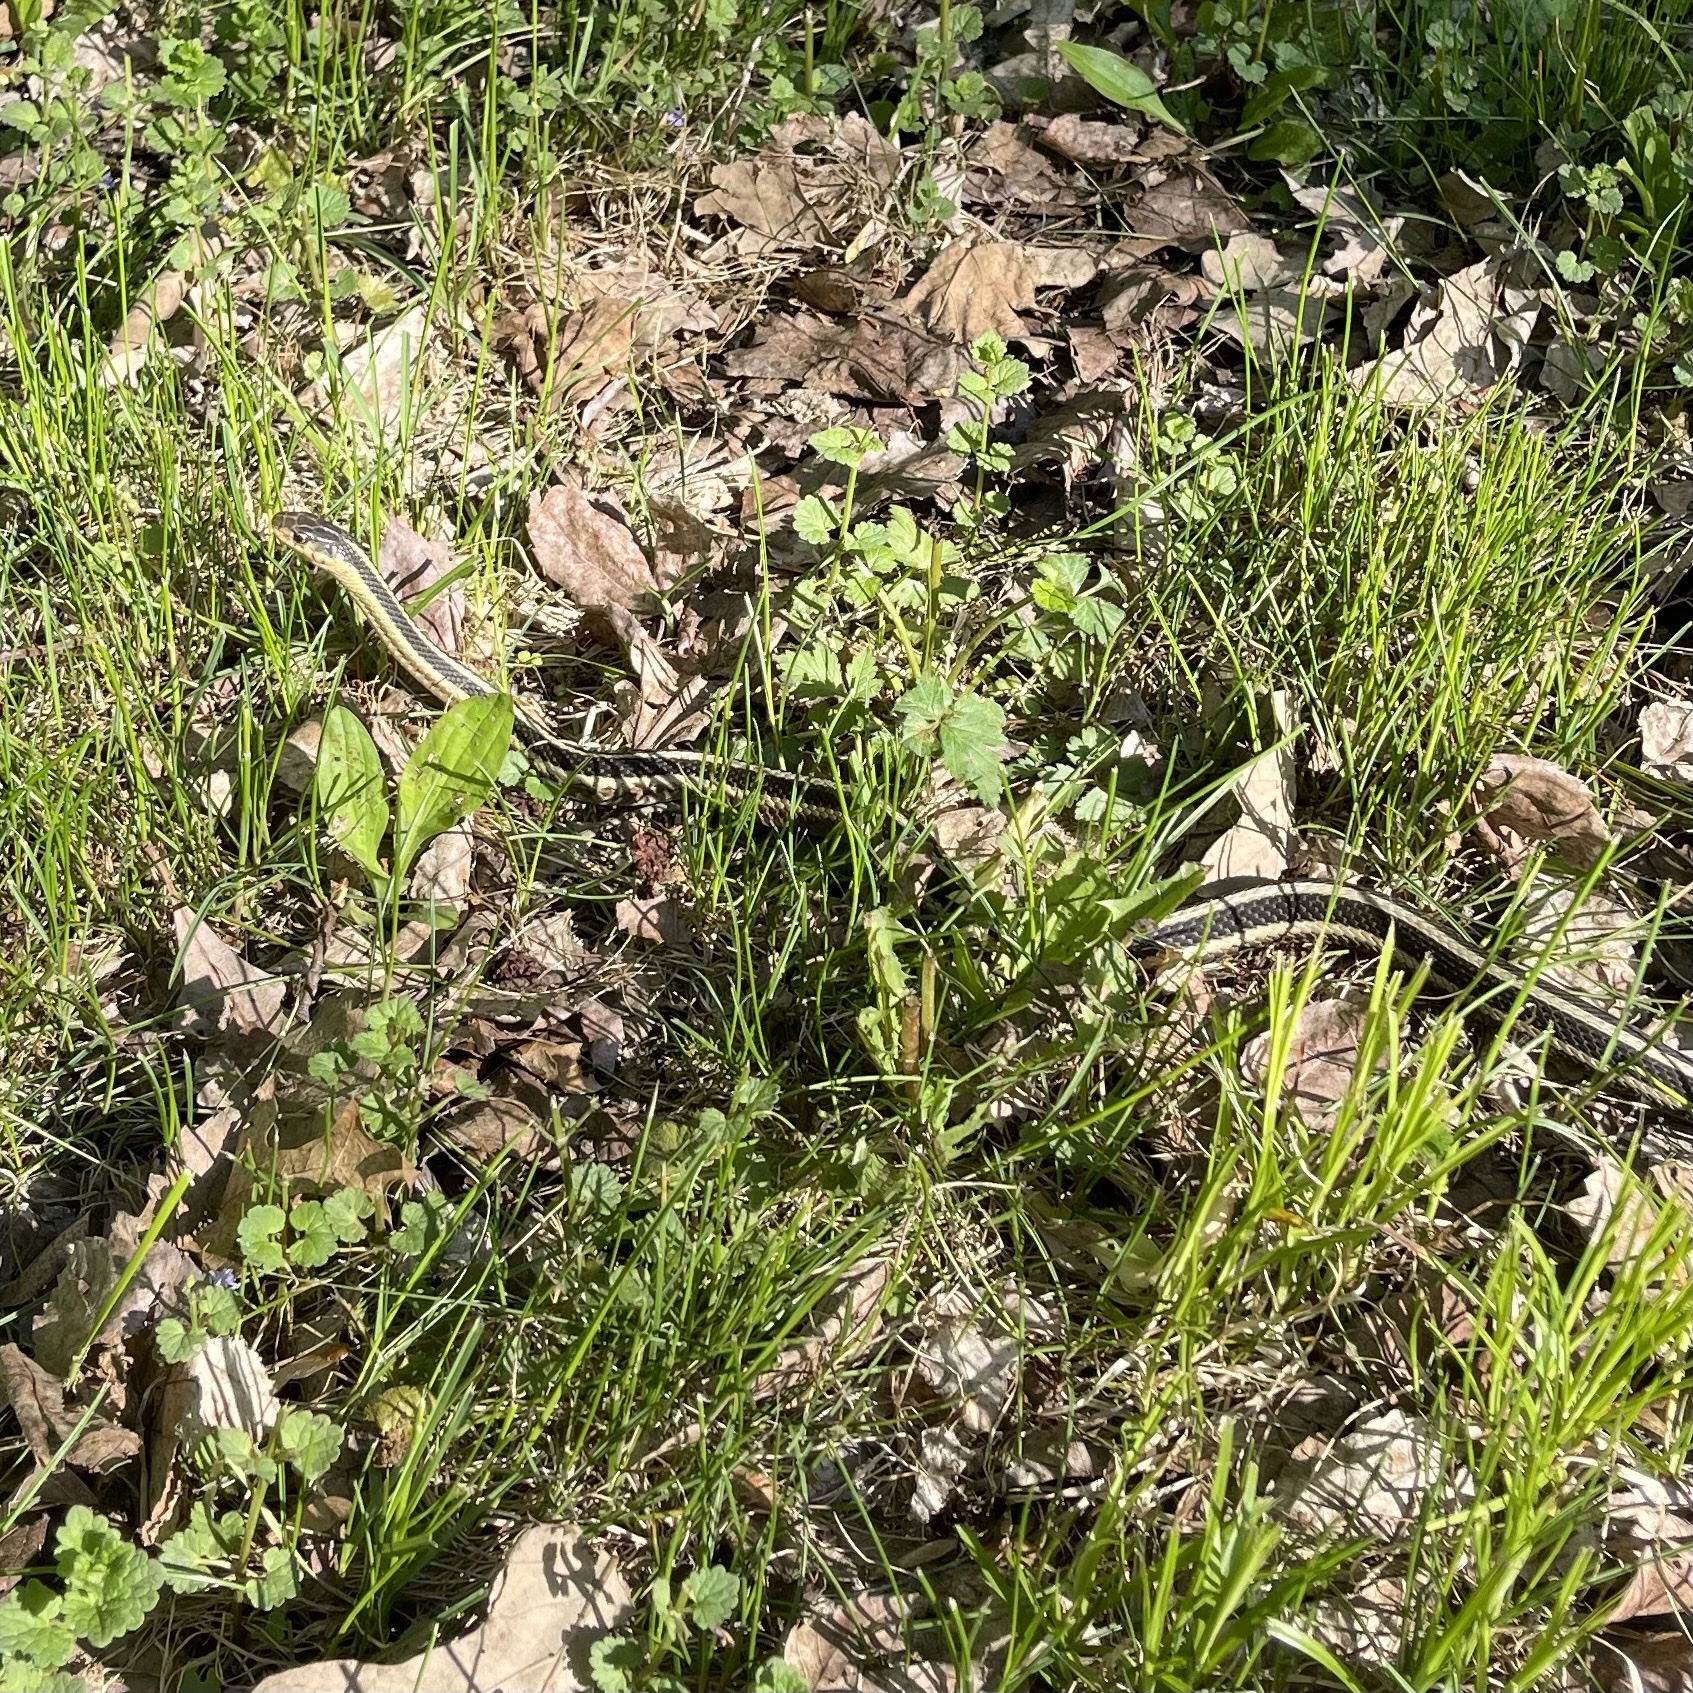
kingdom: Animalia
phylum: Chordata
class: Squamata
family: Colubridae
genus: Thamnophis
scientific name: Thamnophis sirtalis
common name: Common garter snake
